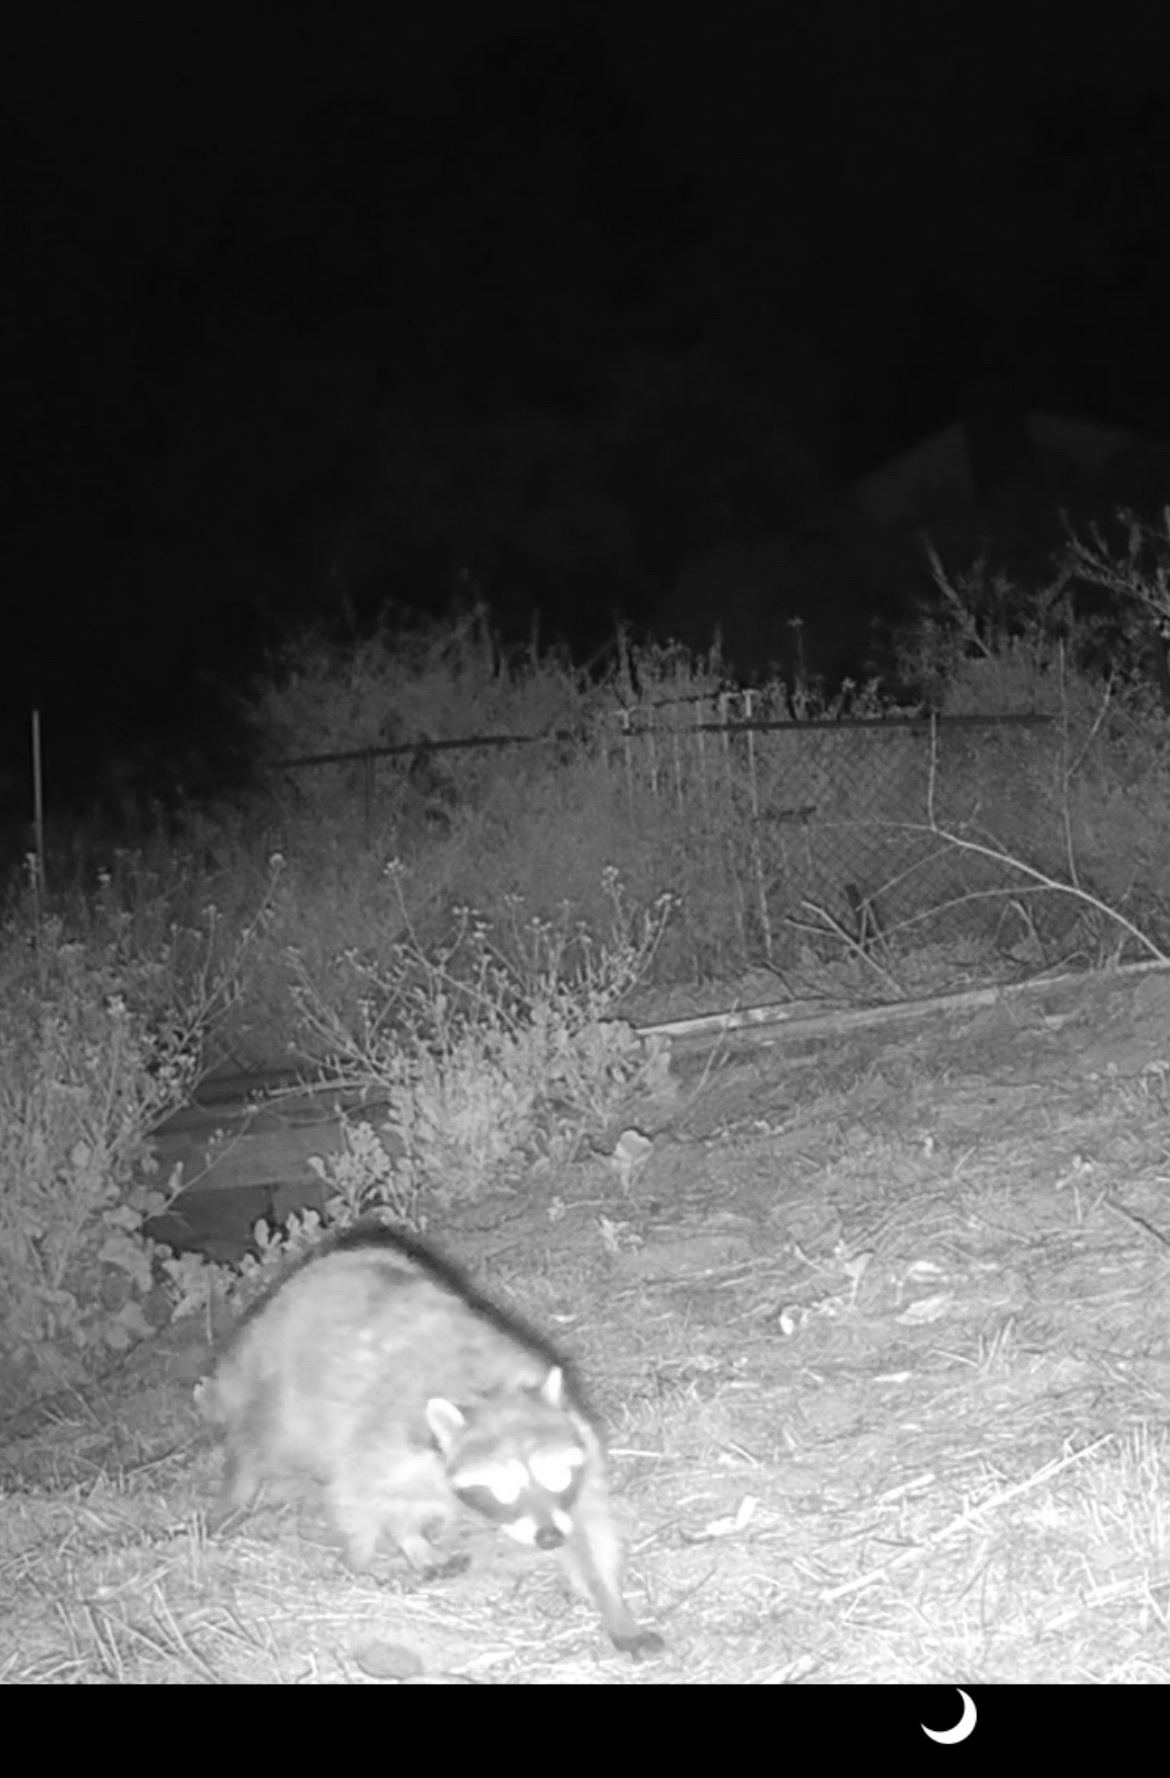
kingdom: Animalia
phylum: Chordata
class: Mammalia
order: Carnivora
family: Procyonidae
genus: Procyon
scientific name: Procyon lotor
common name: Raccoon
